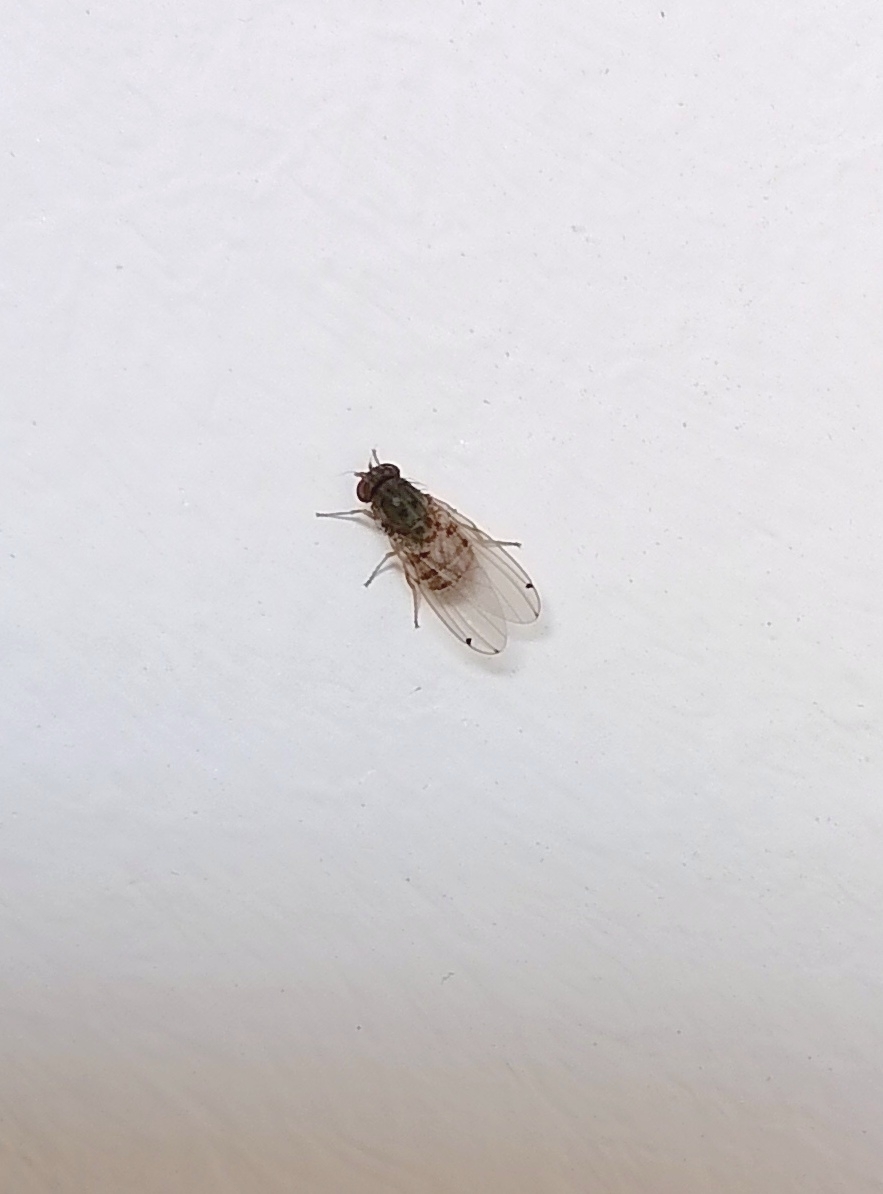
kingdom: Animalia
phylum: Arthropoda
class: Insecta
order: Diptera
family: Drosophilidae
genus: Gitona
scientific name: Gitona distigma
